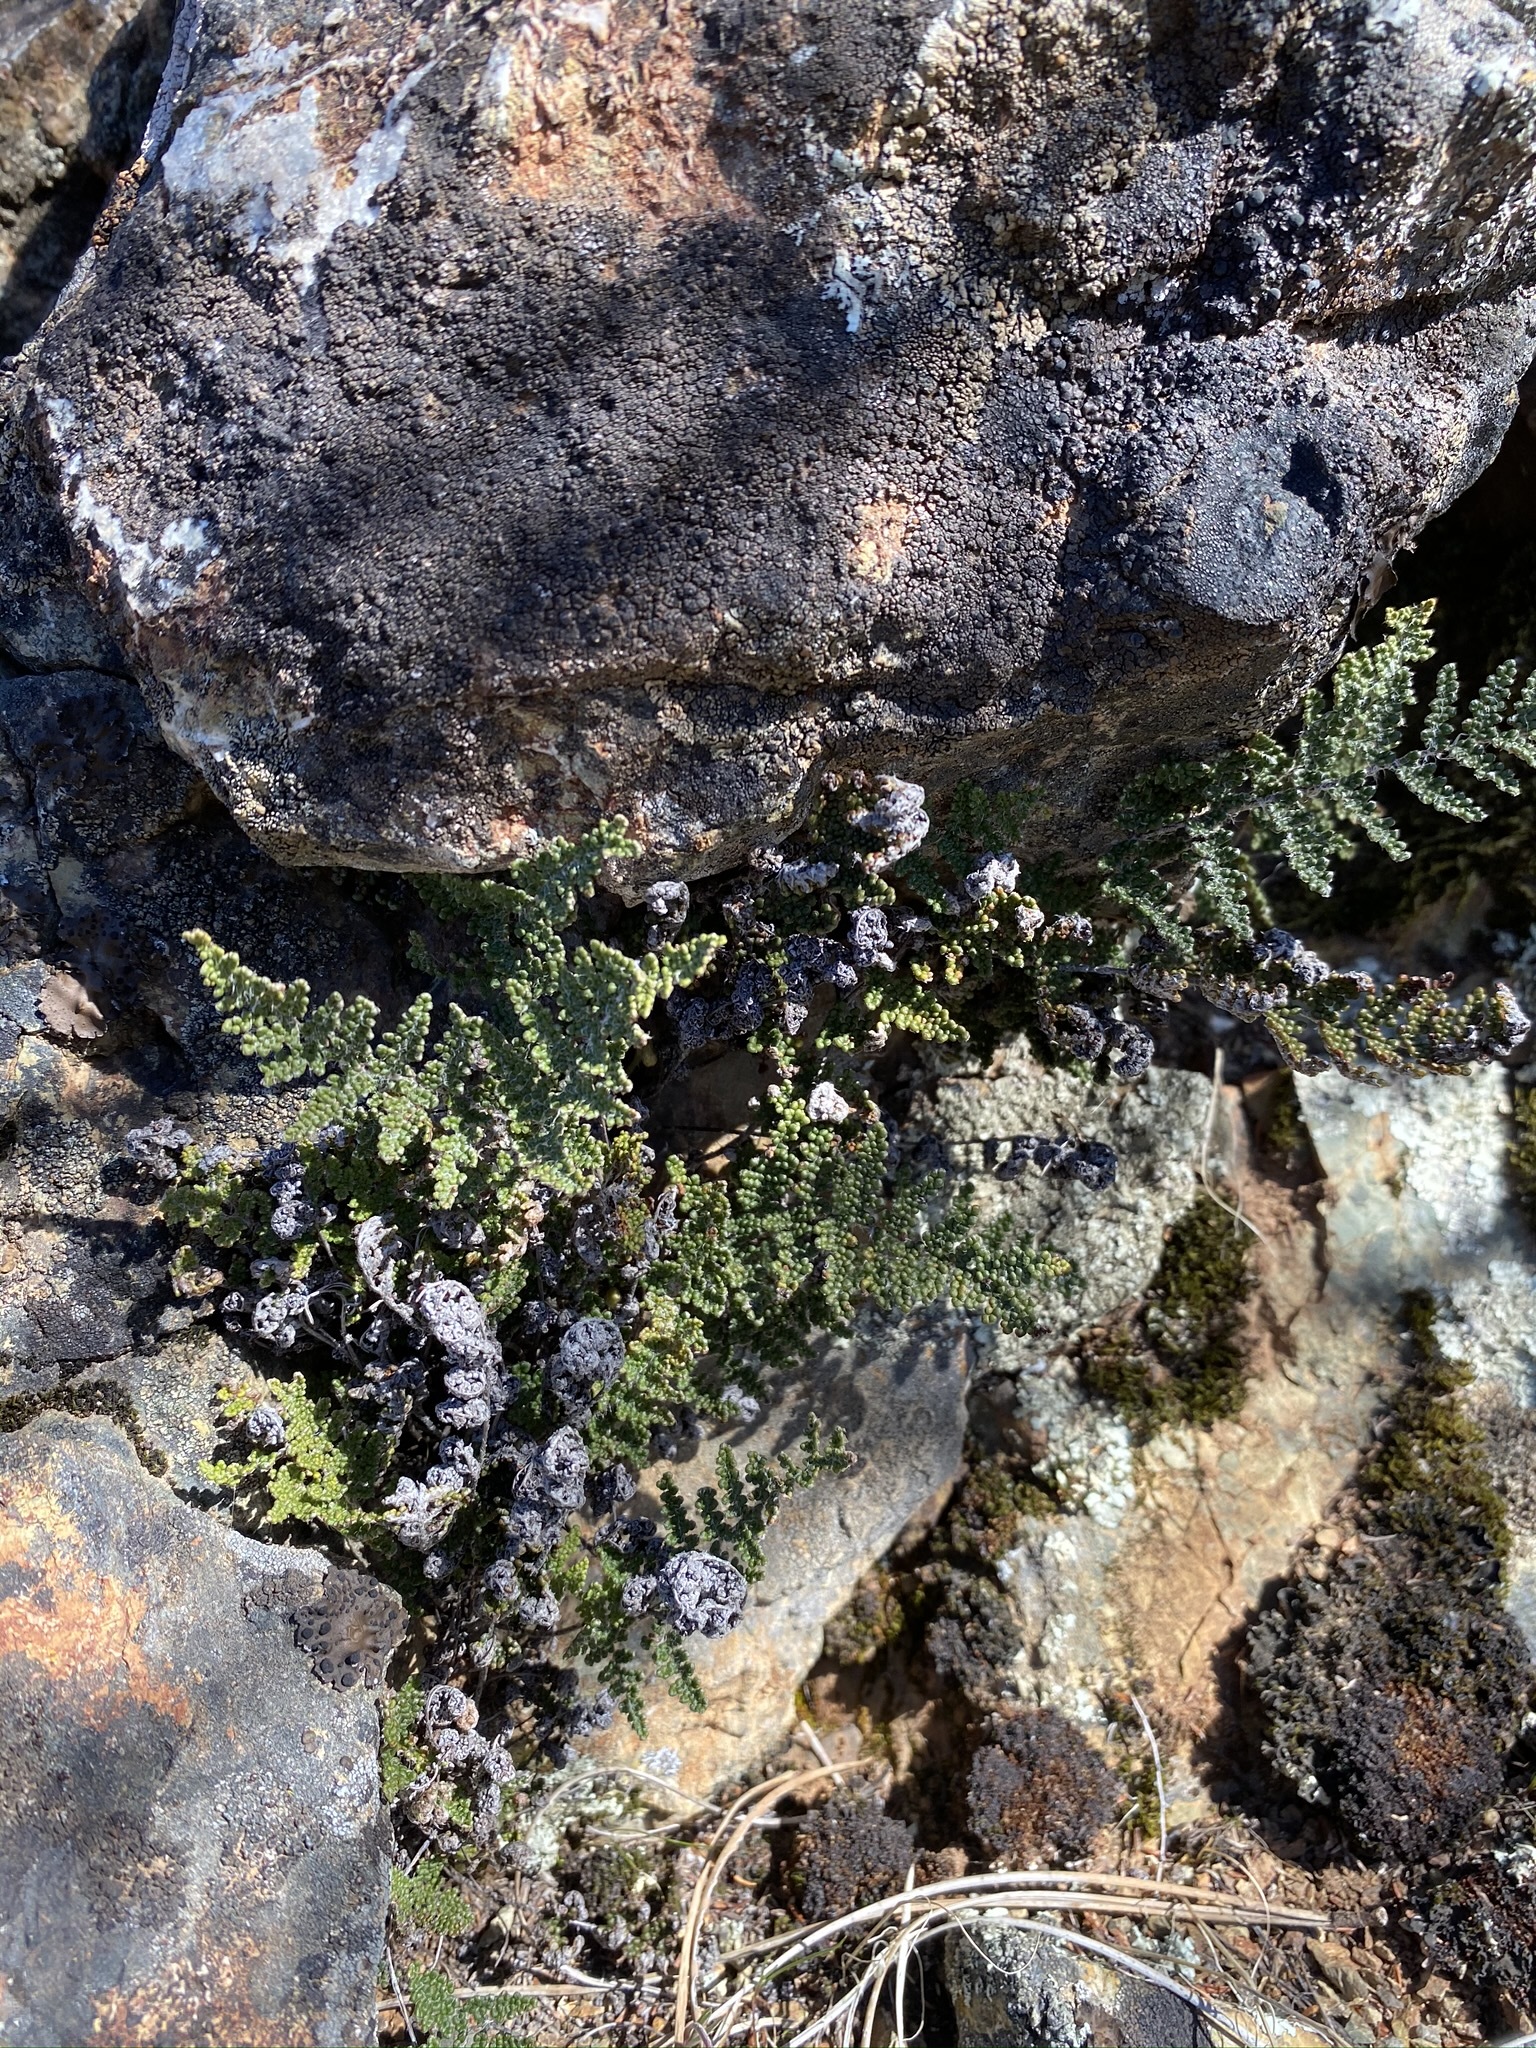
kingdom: Plantae
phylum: Tracheophyta
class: Polypodiopsida
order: Polypodiales
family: Pteridaceae
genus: Myriopteris
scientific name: Myriopteris covillei
